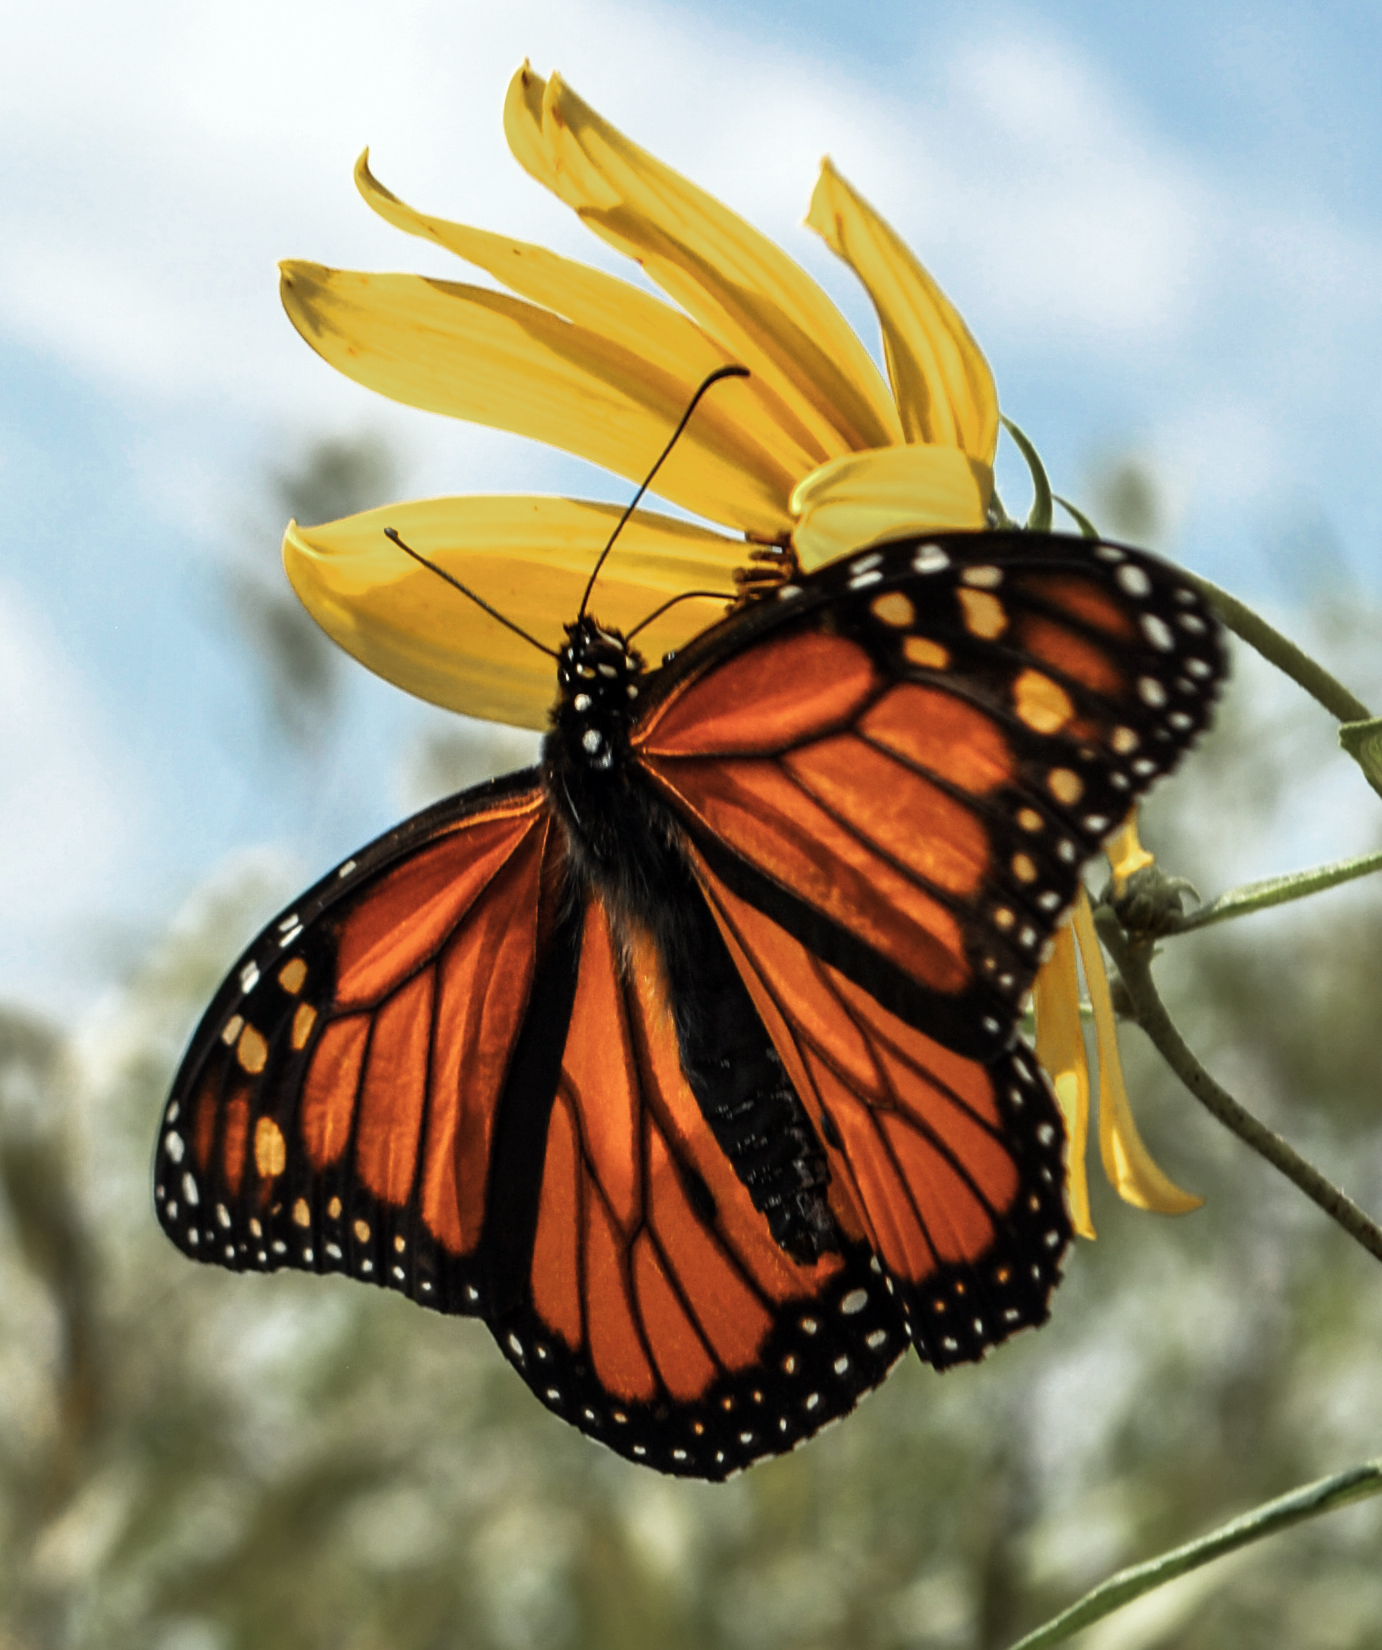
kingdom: Animalia
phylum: Arthropoda
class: Insecta
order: Lepidoptera
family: Nymphalidae
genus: Danaus
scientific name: Danaus plexippus
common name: Monarch
